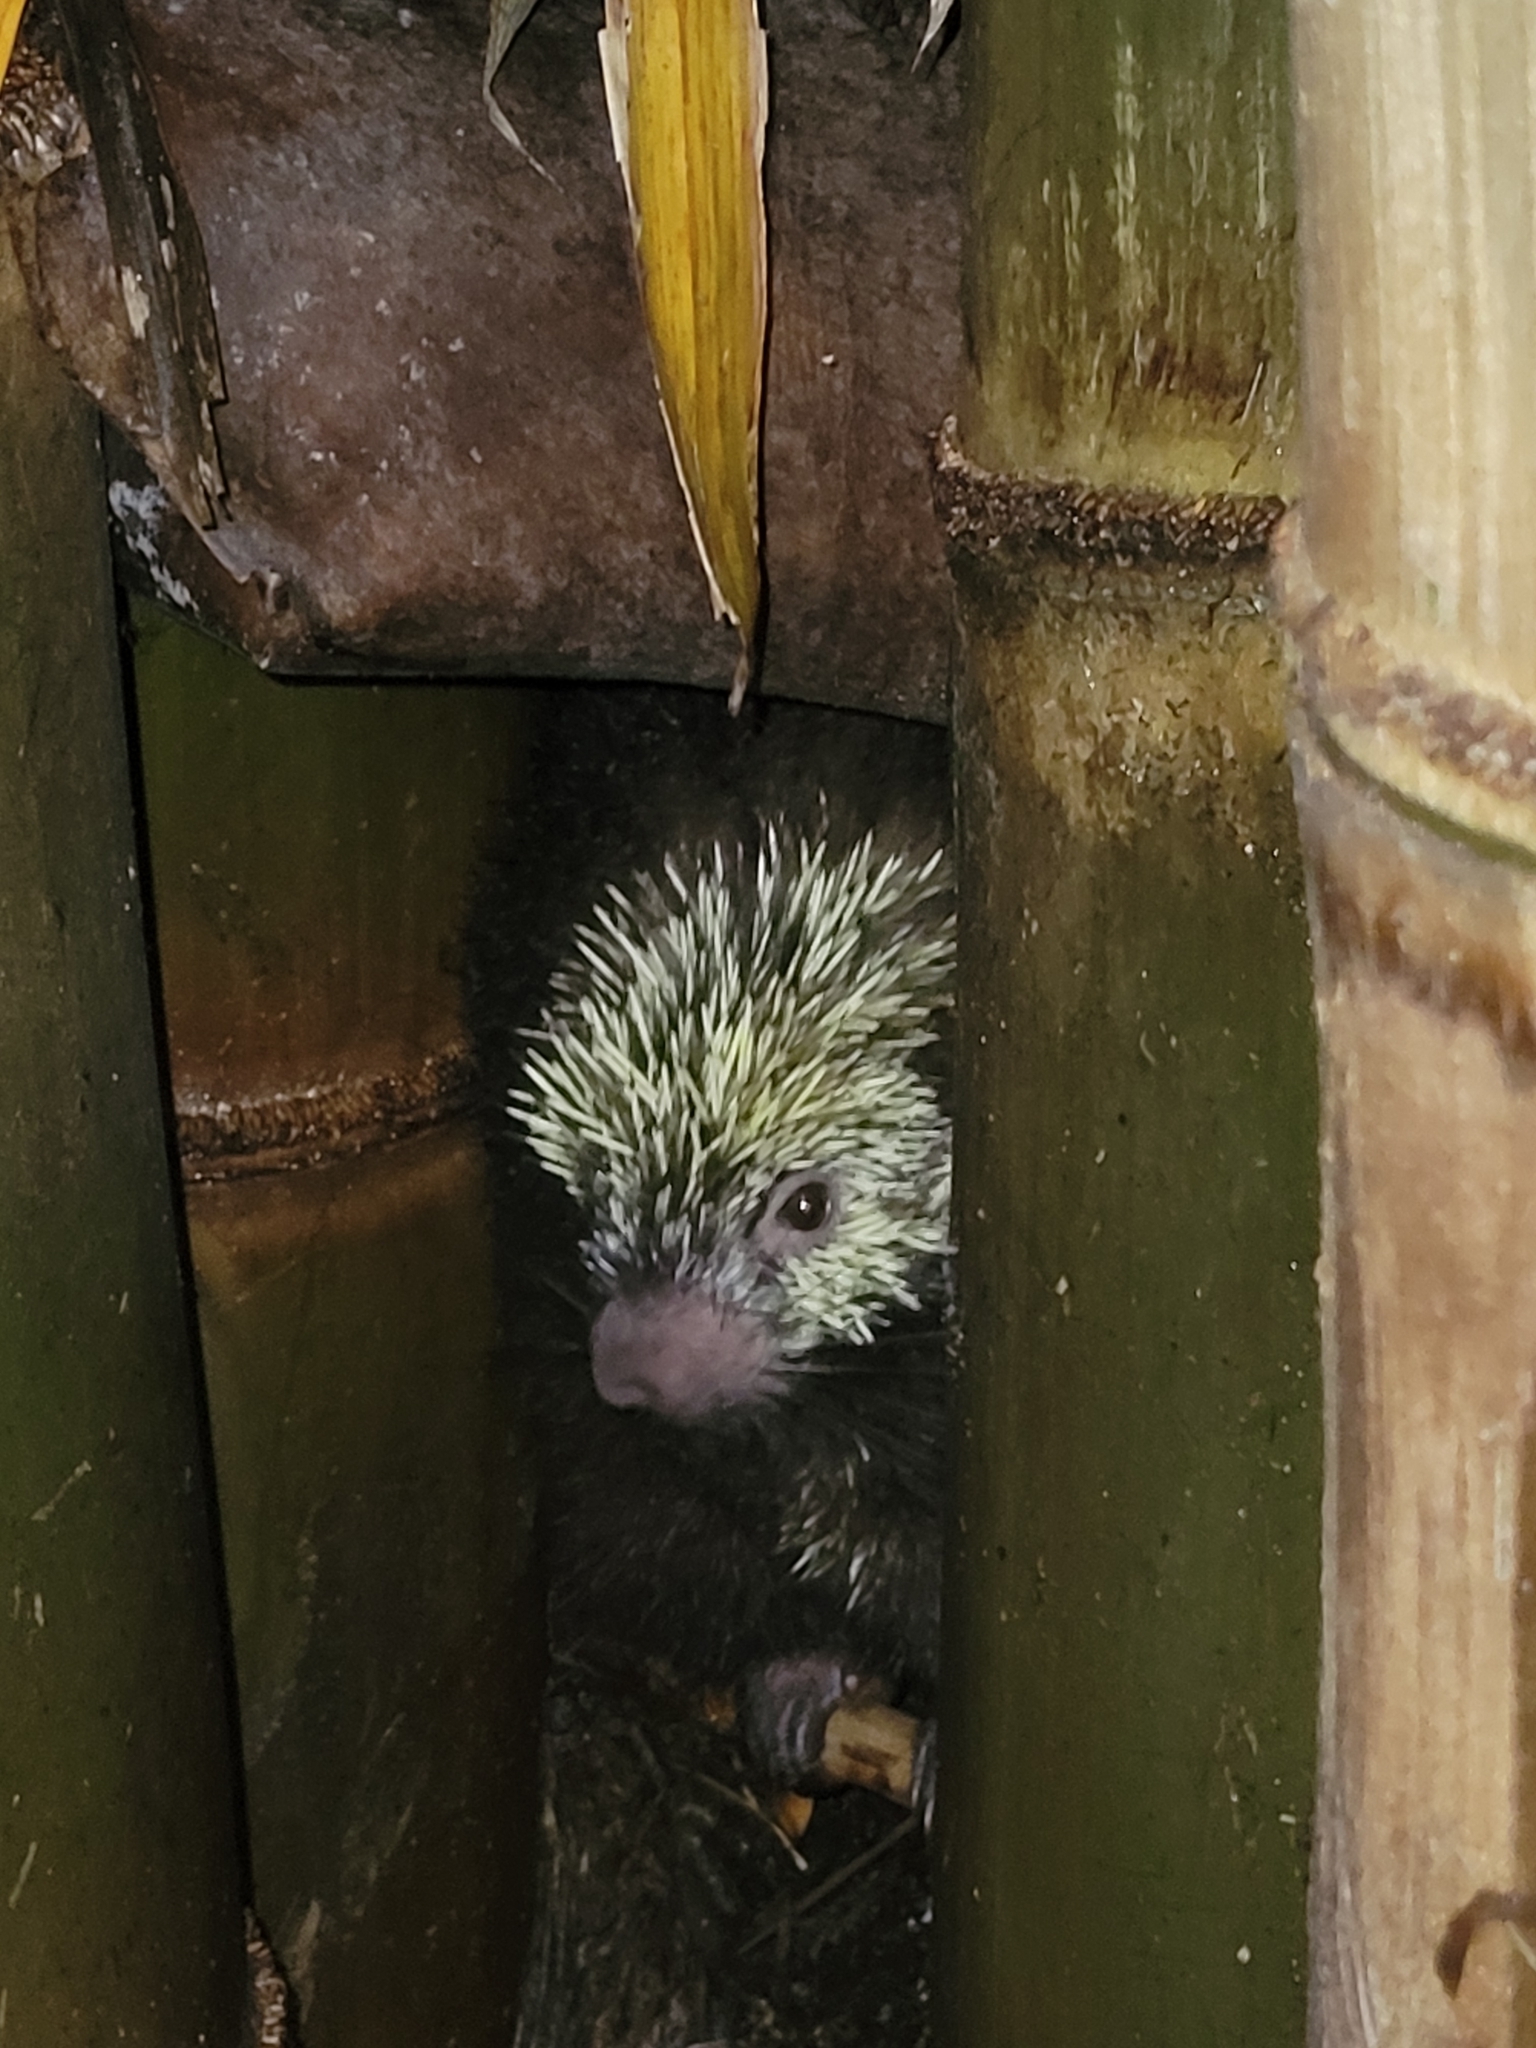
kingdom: Animalia
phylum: Chordata
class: Mammalia
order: Rodentia
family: Erethizontidae
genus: Sphiggurus
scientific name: Sphiggurus mexicanus
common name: Mexican hairy dwarf porcupine
